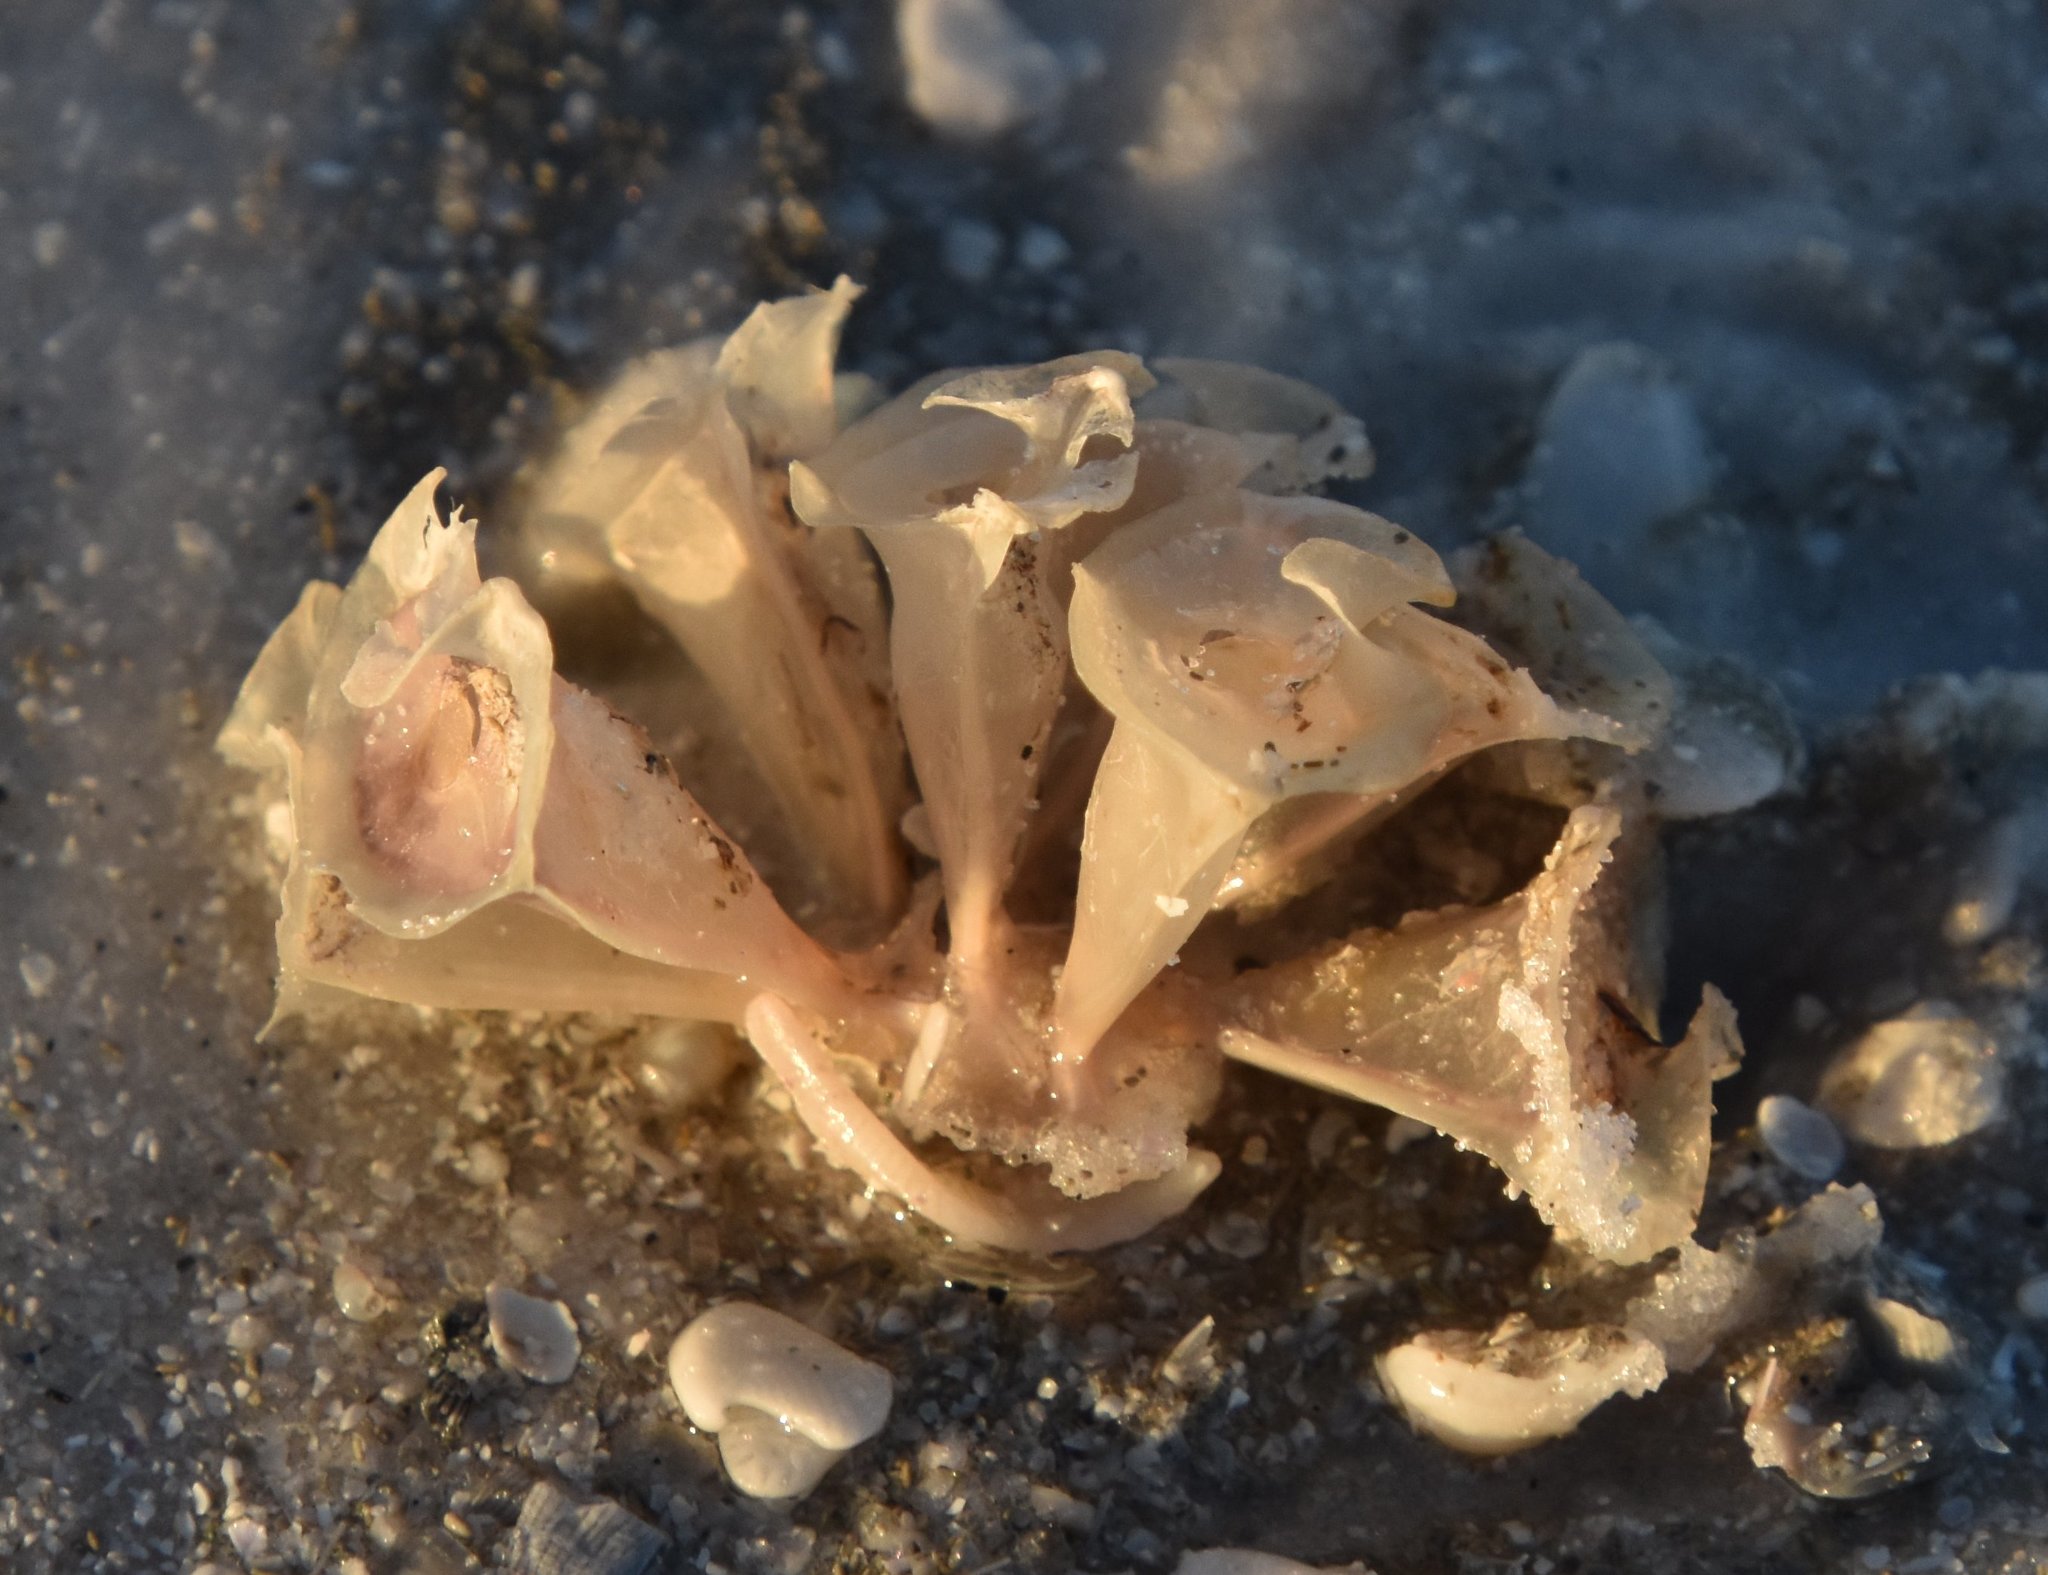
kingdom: Animalia
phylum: Mollusca
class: Gastropoda
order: Neogastropoda
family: Fasciolariidae
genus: Cinctura
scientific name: Cinctura hunteria
